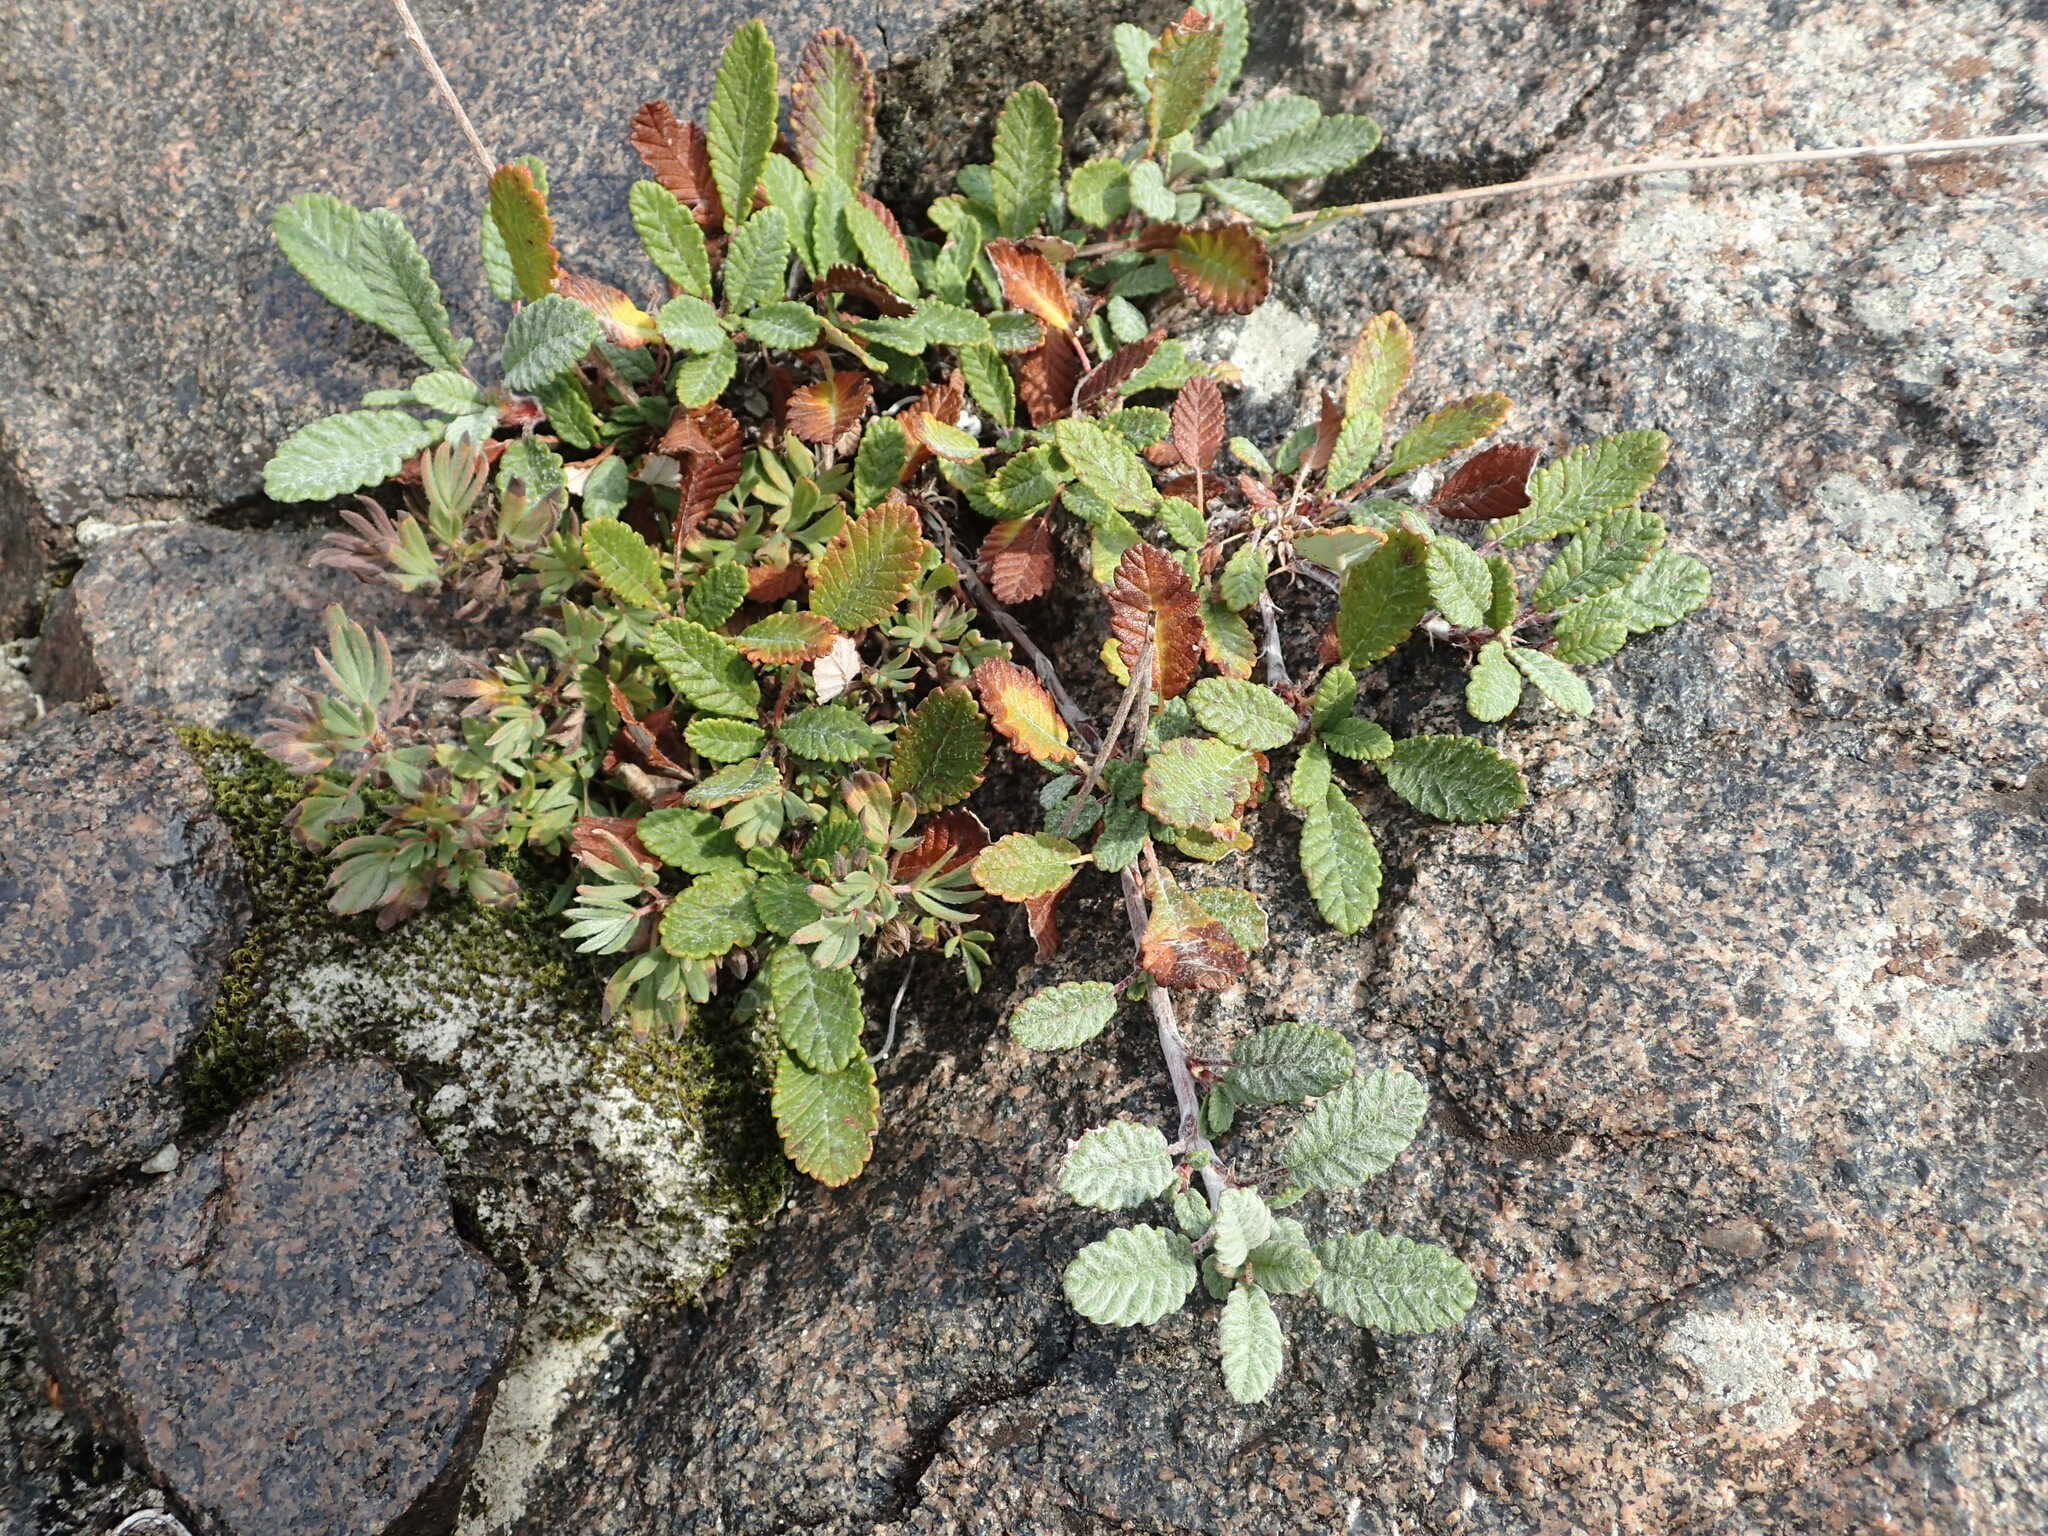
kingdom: Plantae
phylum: Tracheophyta
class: Magnoliopsida
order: Rosales
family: Rosaceae
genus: Dryas
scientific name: Dryas drummondii
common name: Drummond's dryad
